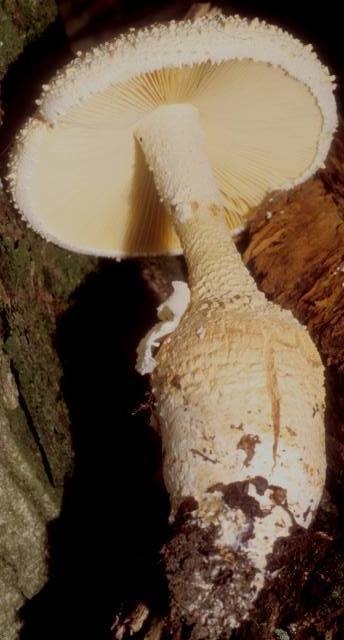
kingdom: Fungi
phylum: Basidiomycota
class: Agaricomycetes
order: Agaricales
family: Amanitaceae
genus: Amanita
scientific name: Amanita rhopalopus
